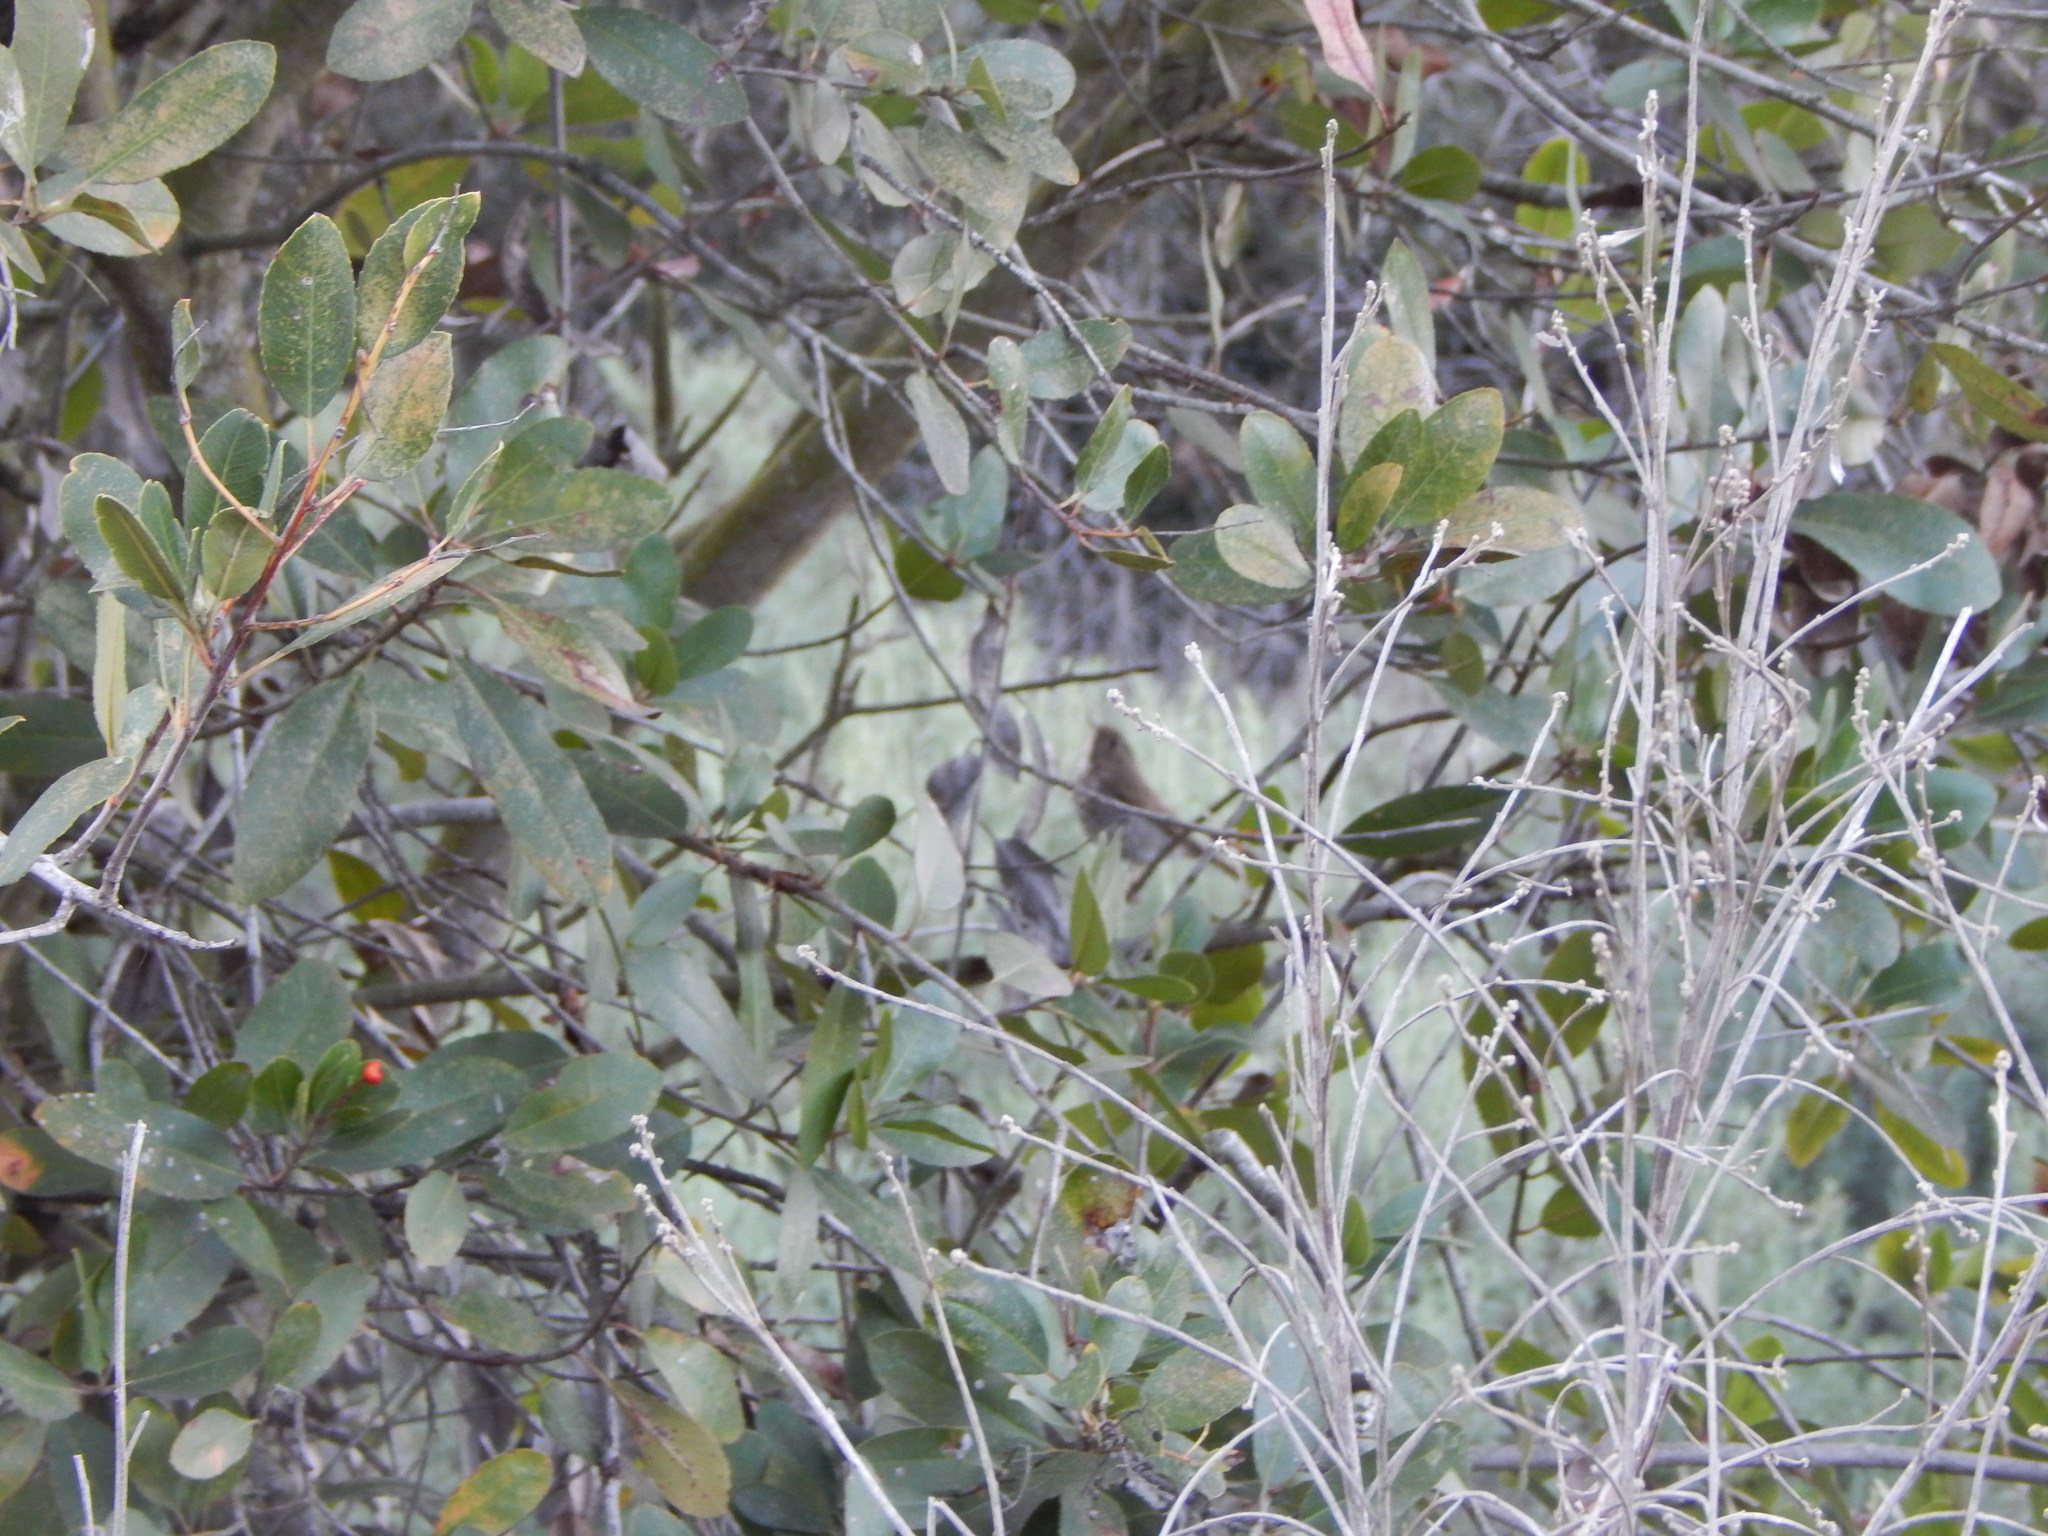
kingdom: Animalia
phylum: Chordata
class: Aves
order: Passeriformes
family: Turdidae
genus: Catharus
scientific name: Catharus guttatus
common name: Hermit thrush
